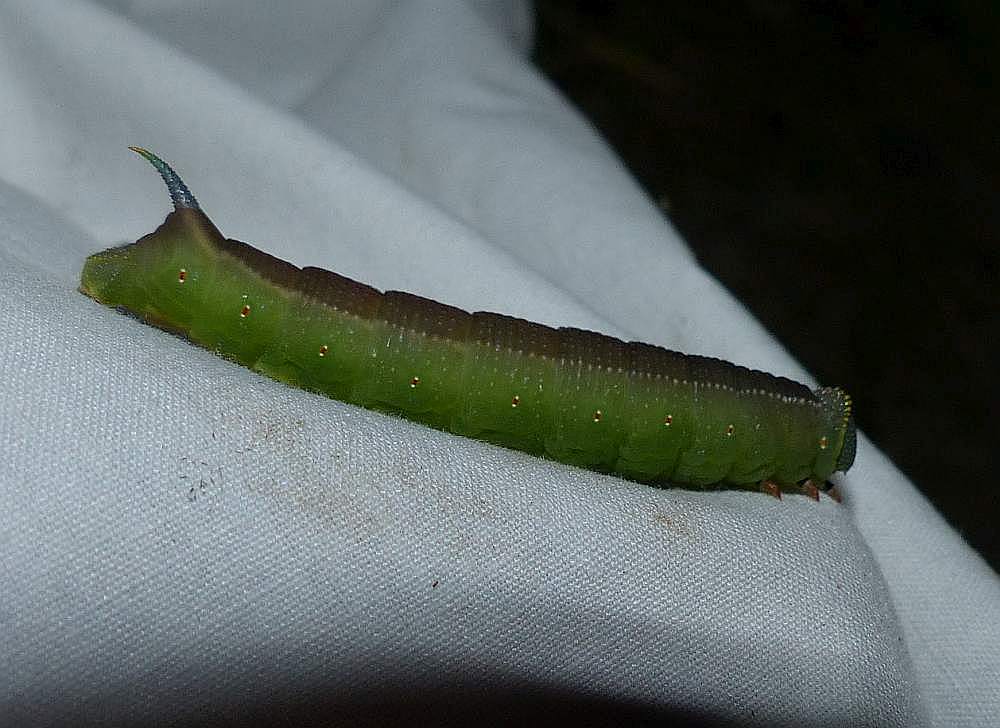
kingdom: Animalia
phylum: Arthropoda
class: Insecta
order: Lepidoptera
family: Sphingidae
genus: Hemaris
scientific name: Hemaris thysbe
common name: Common clear-wing
